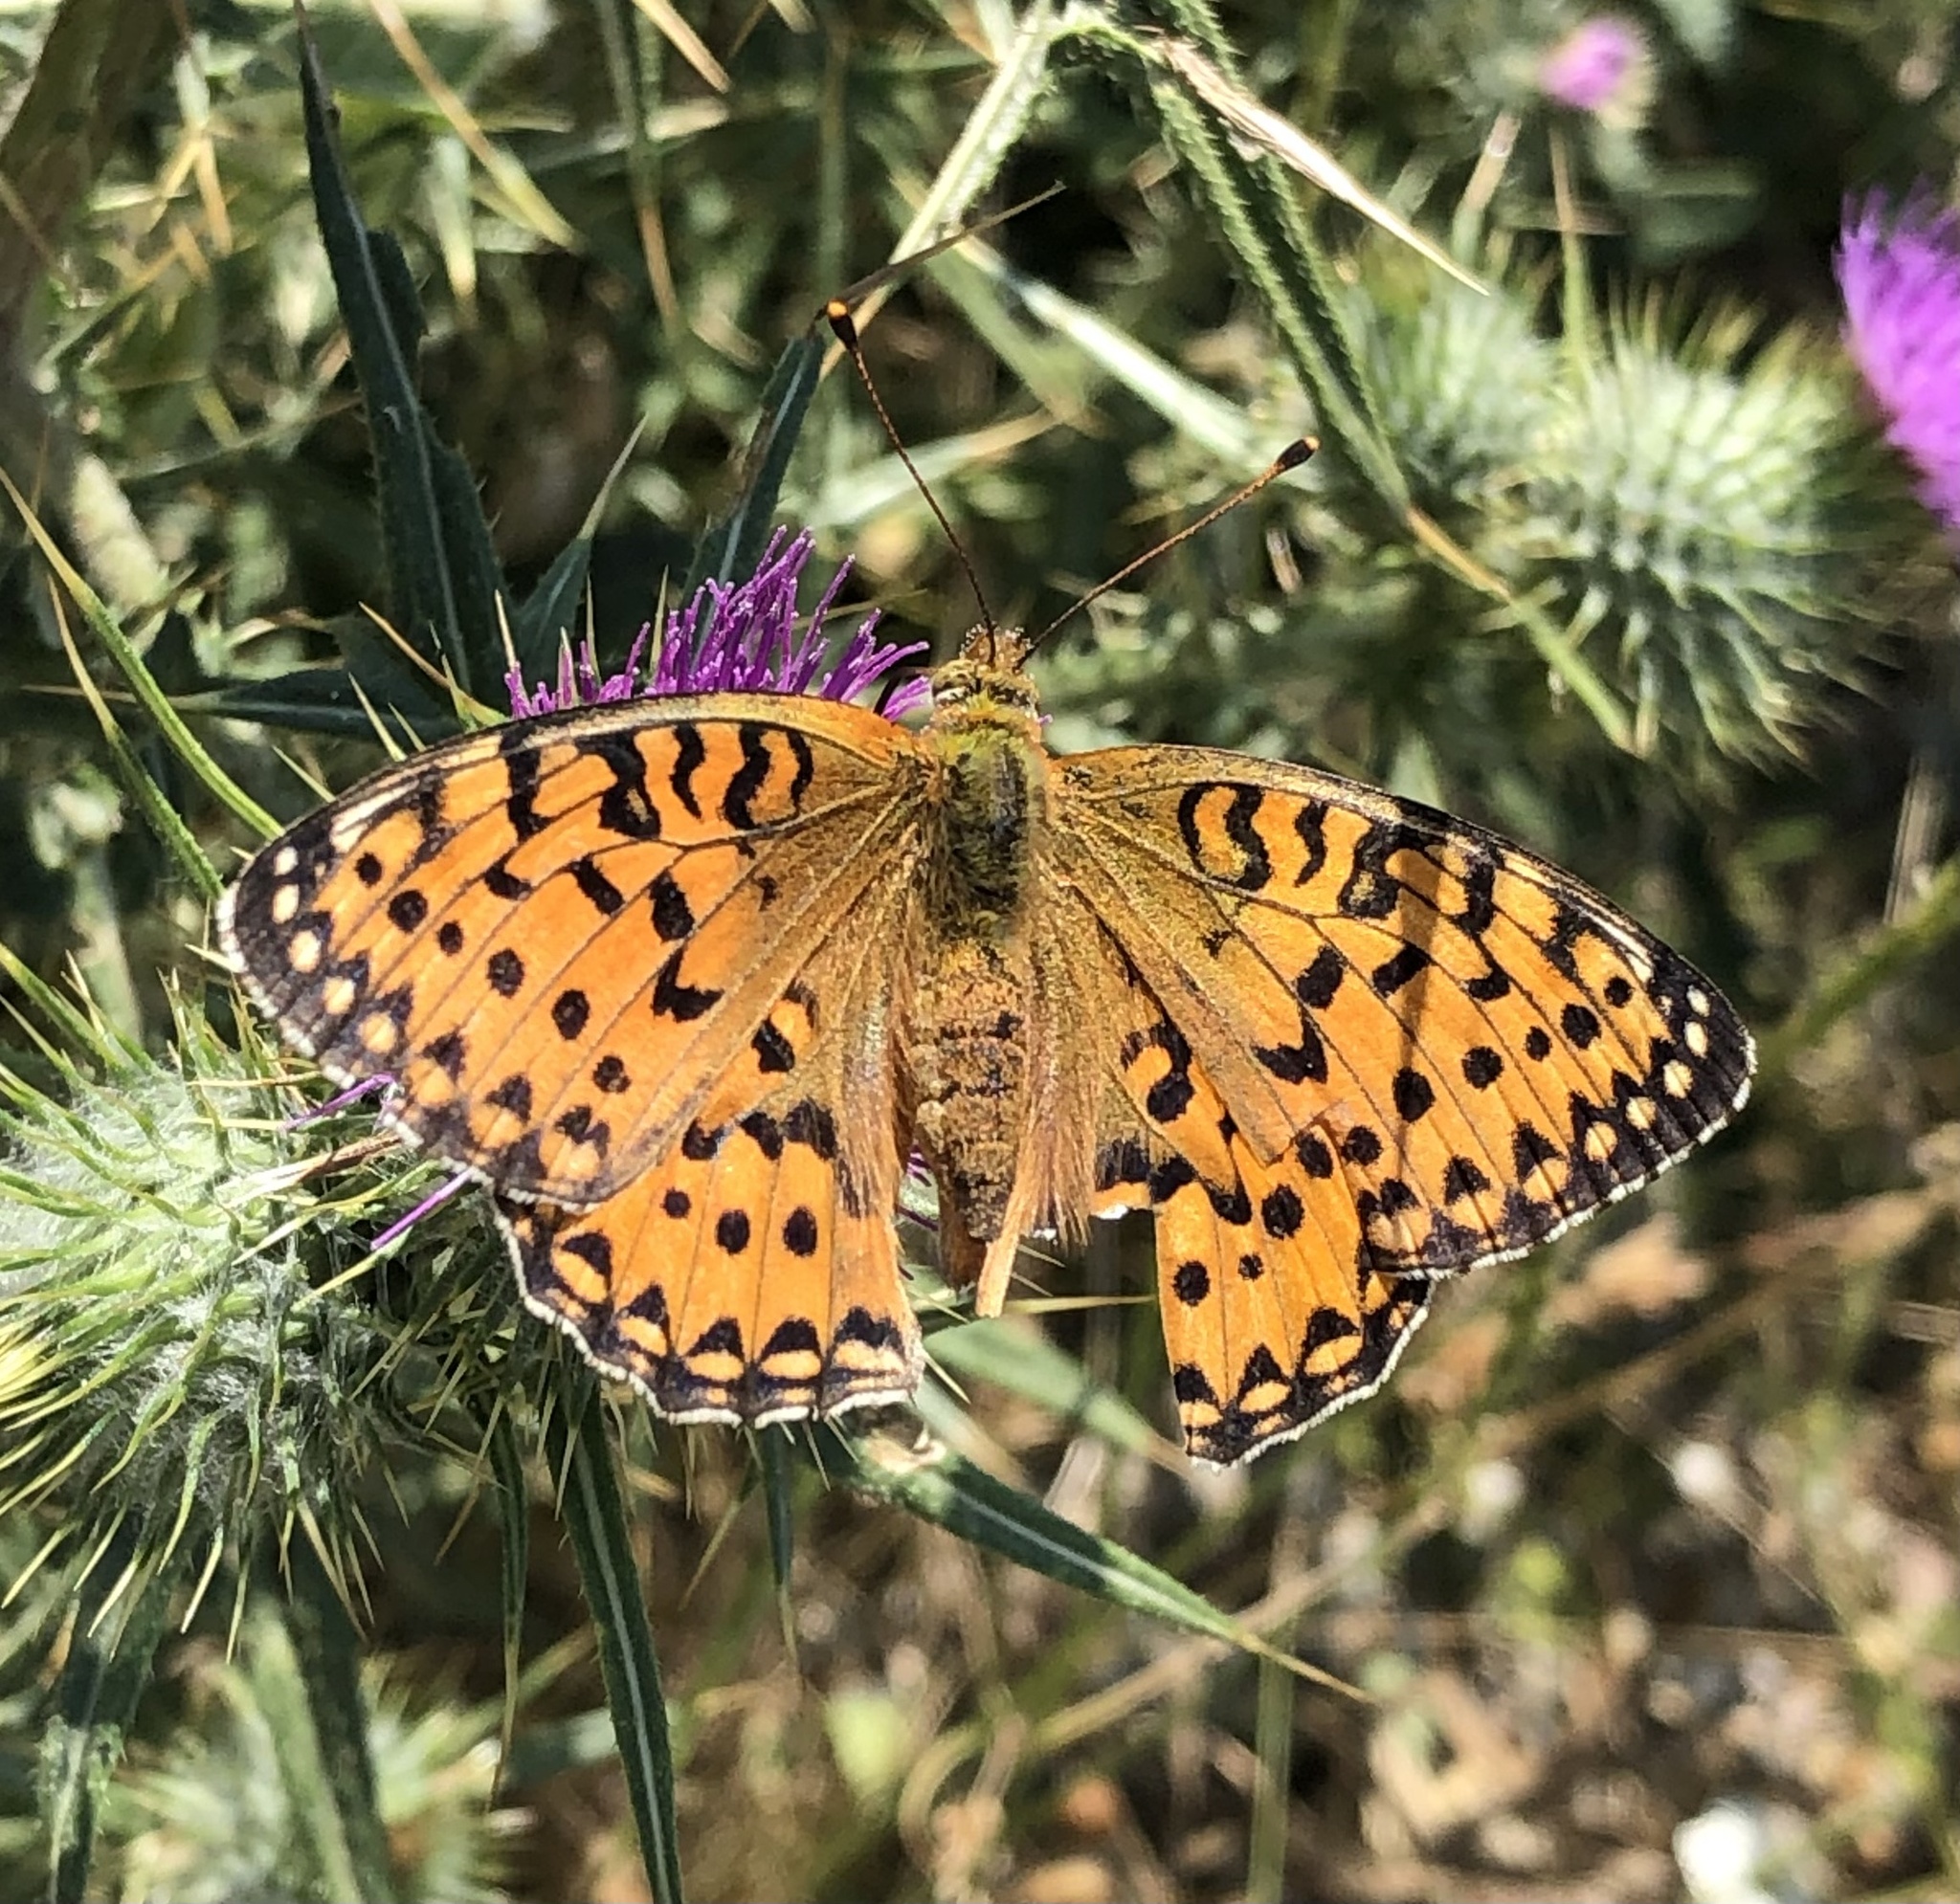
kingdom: Animalia
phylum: Arthropoda
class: Insecta
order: Lepidoptera
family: Nymphalidae
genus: Speyeria
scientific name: Speyeria aglaja
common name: Dark green fritillary
